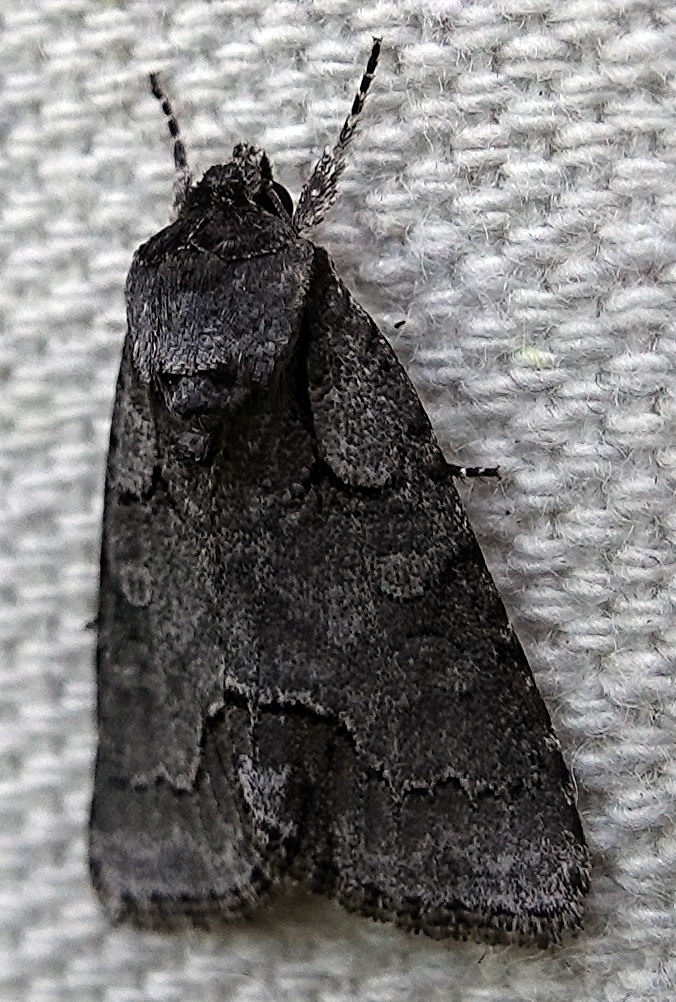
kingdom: Animalia
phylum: Arthropoda
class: Insecta
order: Lepidoptera
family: Noctuidae
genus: Acronicta
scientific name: Acronicta parallela
